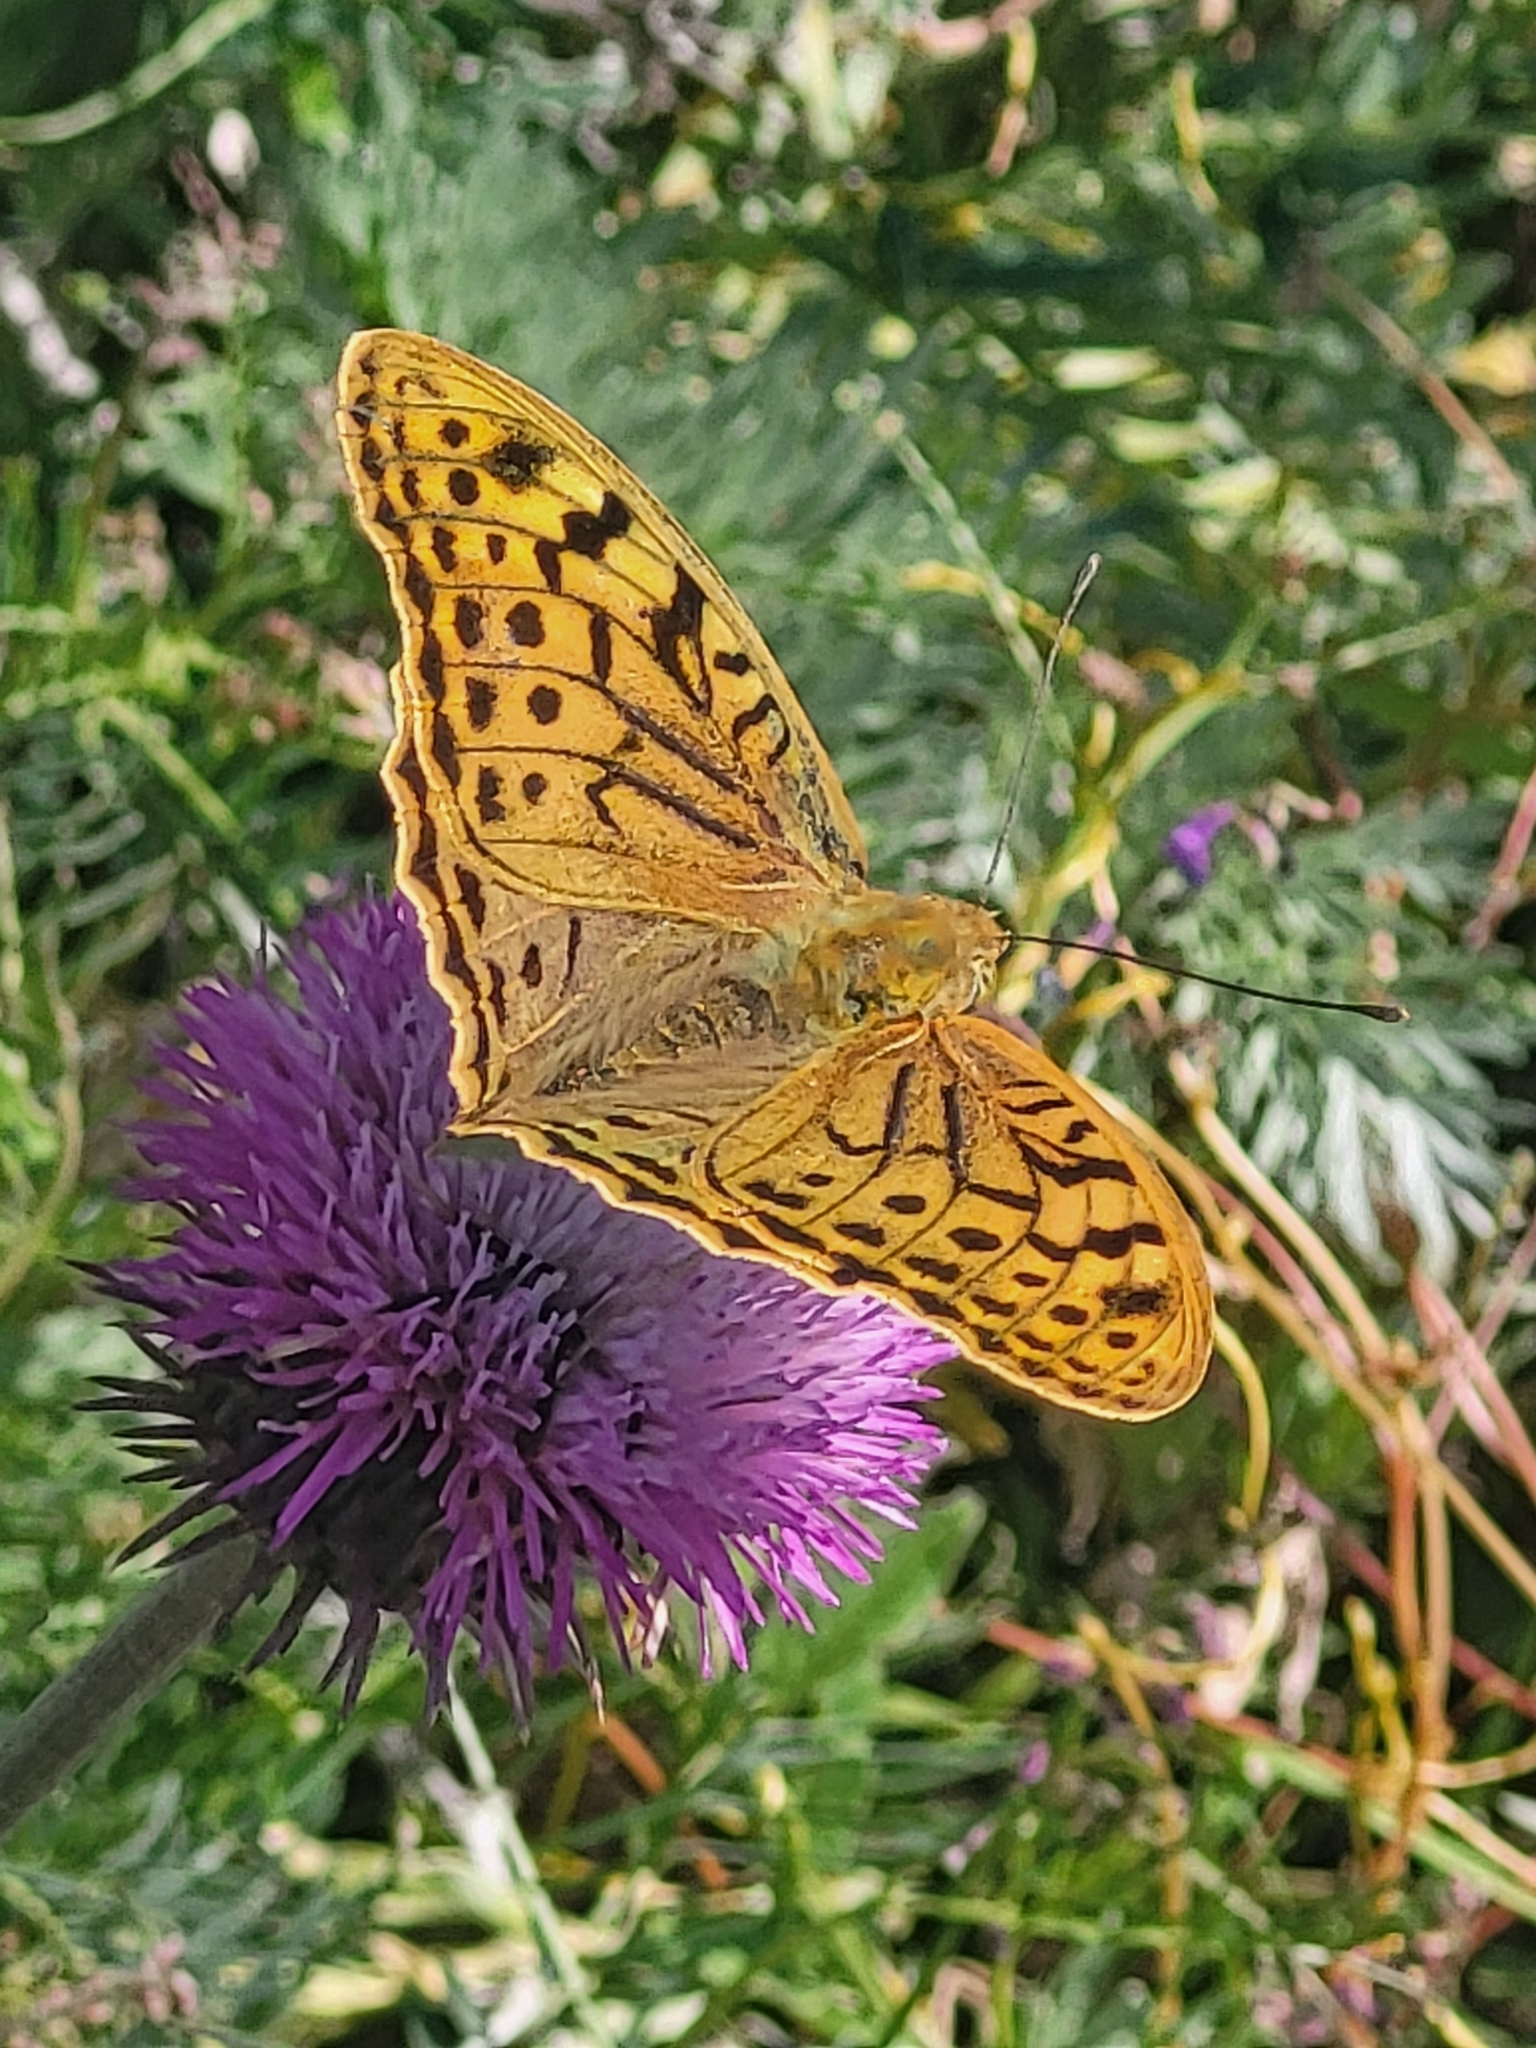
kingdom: Animalia
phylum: Arthropoda
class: Insecta
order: Lepidoptera
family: Nymphalidae
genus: Damora
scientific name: Damora pandora
